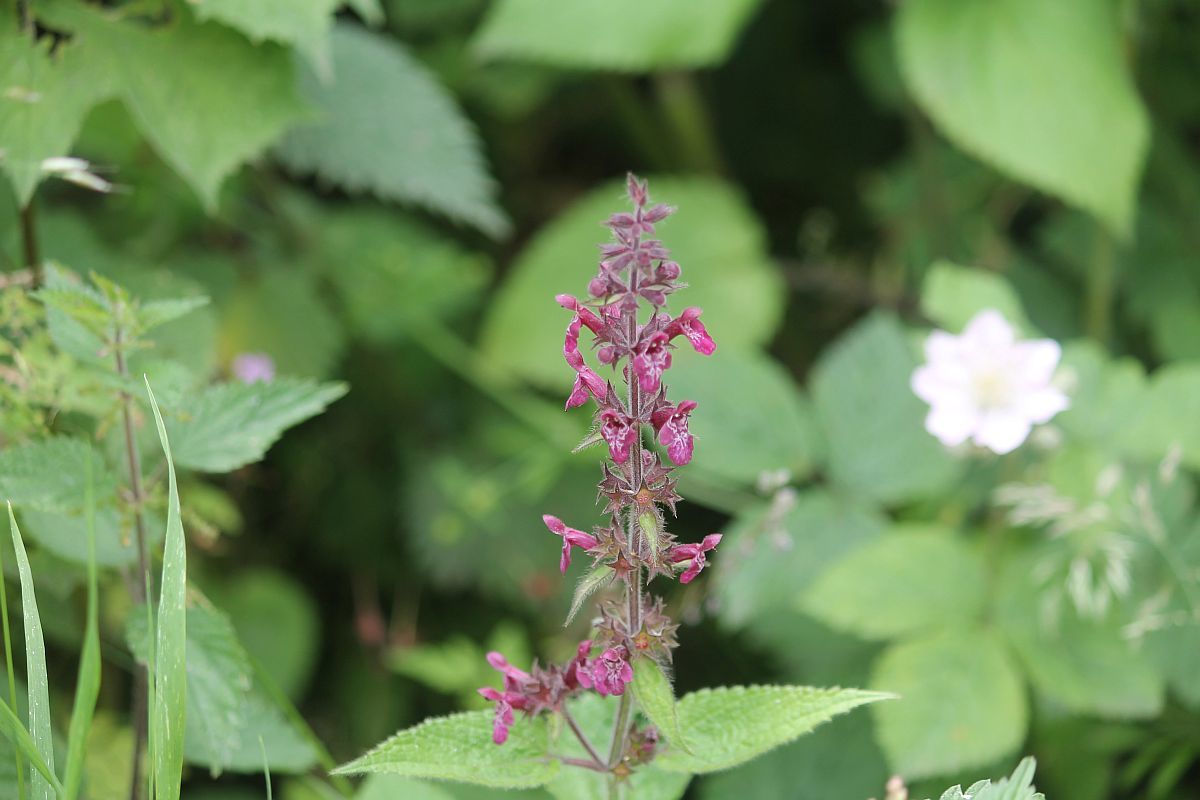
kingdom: Plantae
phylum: Tracheophyta
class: Magnoliopsida
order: Lamiales
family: Lamiaceae
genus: Stachys
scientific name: Stachys sylvatica
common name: Hedge woundwort
